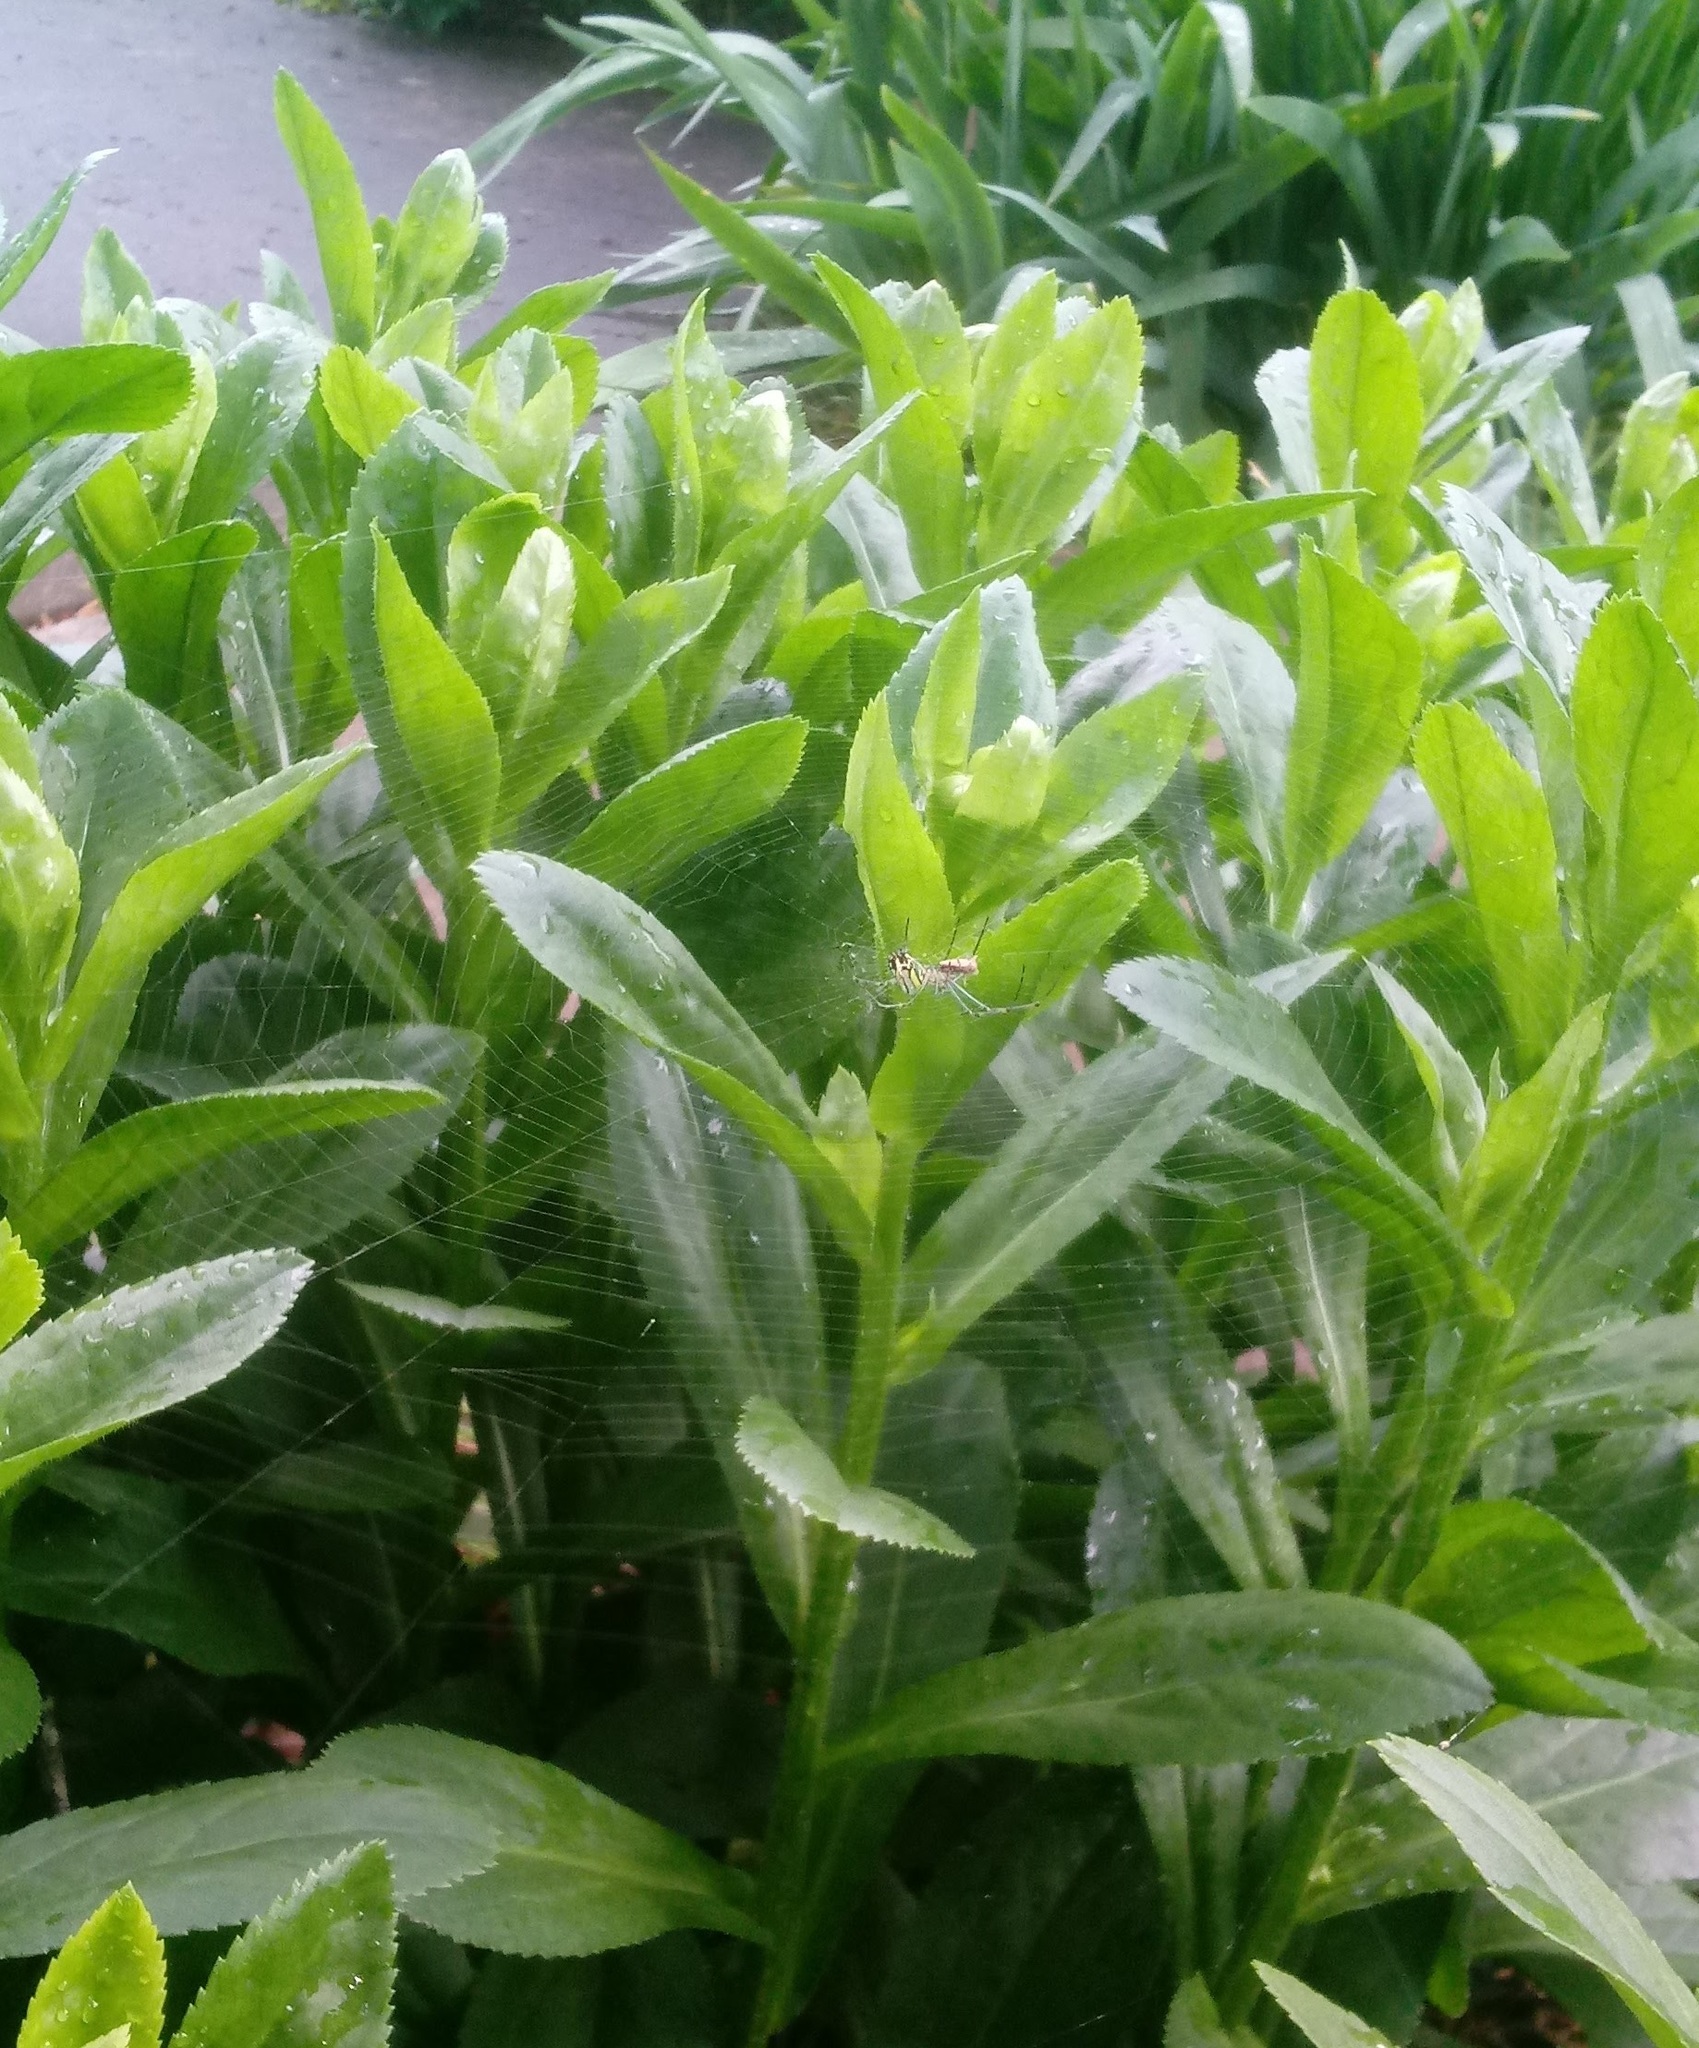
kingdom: Animalia
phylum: Arthropoda
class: Arachnida
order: Araneae
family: Tetragnathidae
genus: Leucauge
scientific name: Leucauge venusta
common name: Longjawed orb weavers
